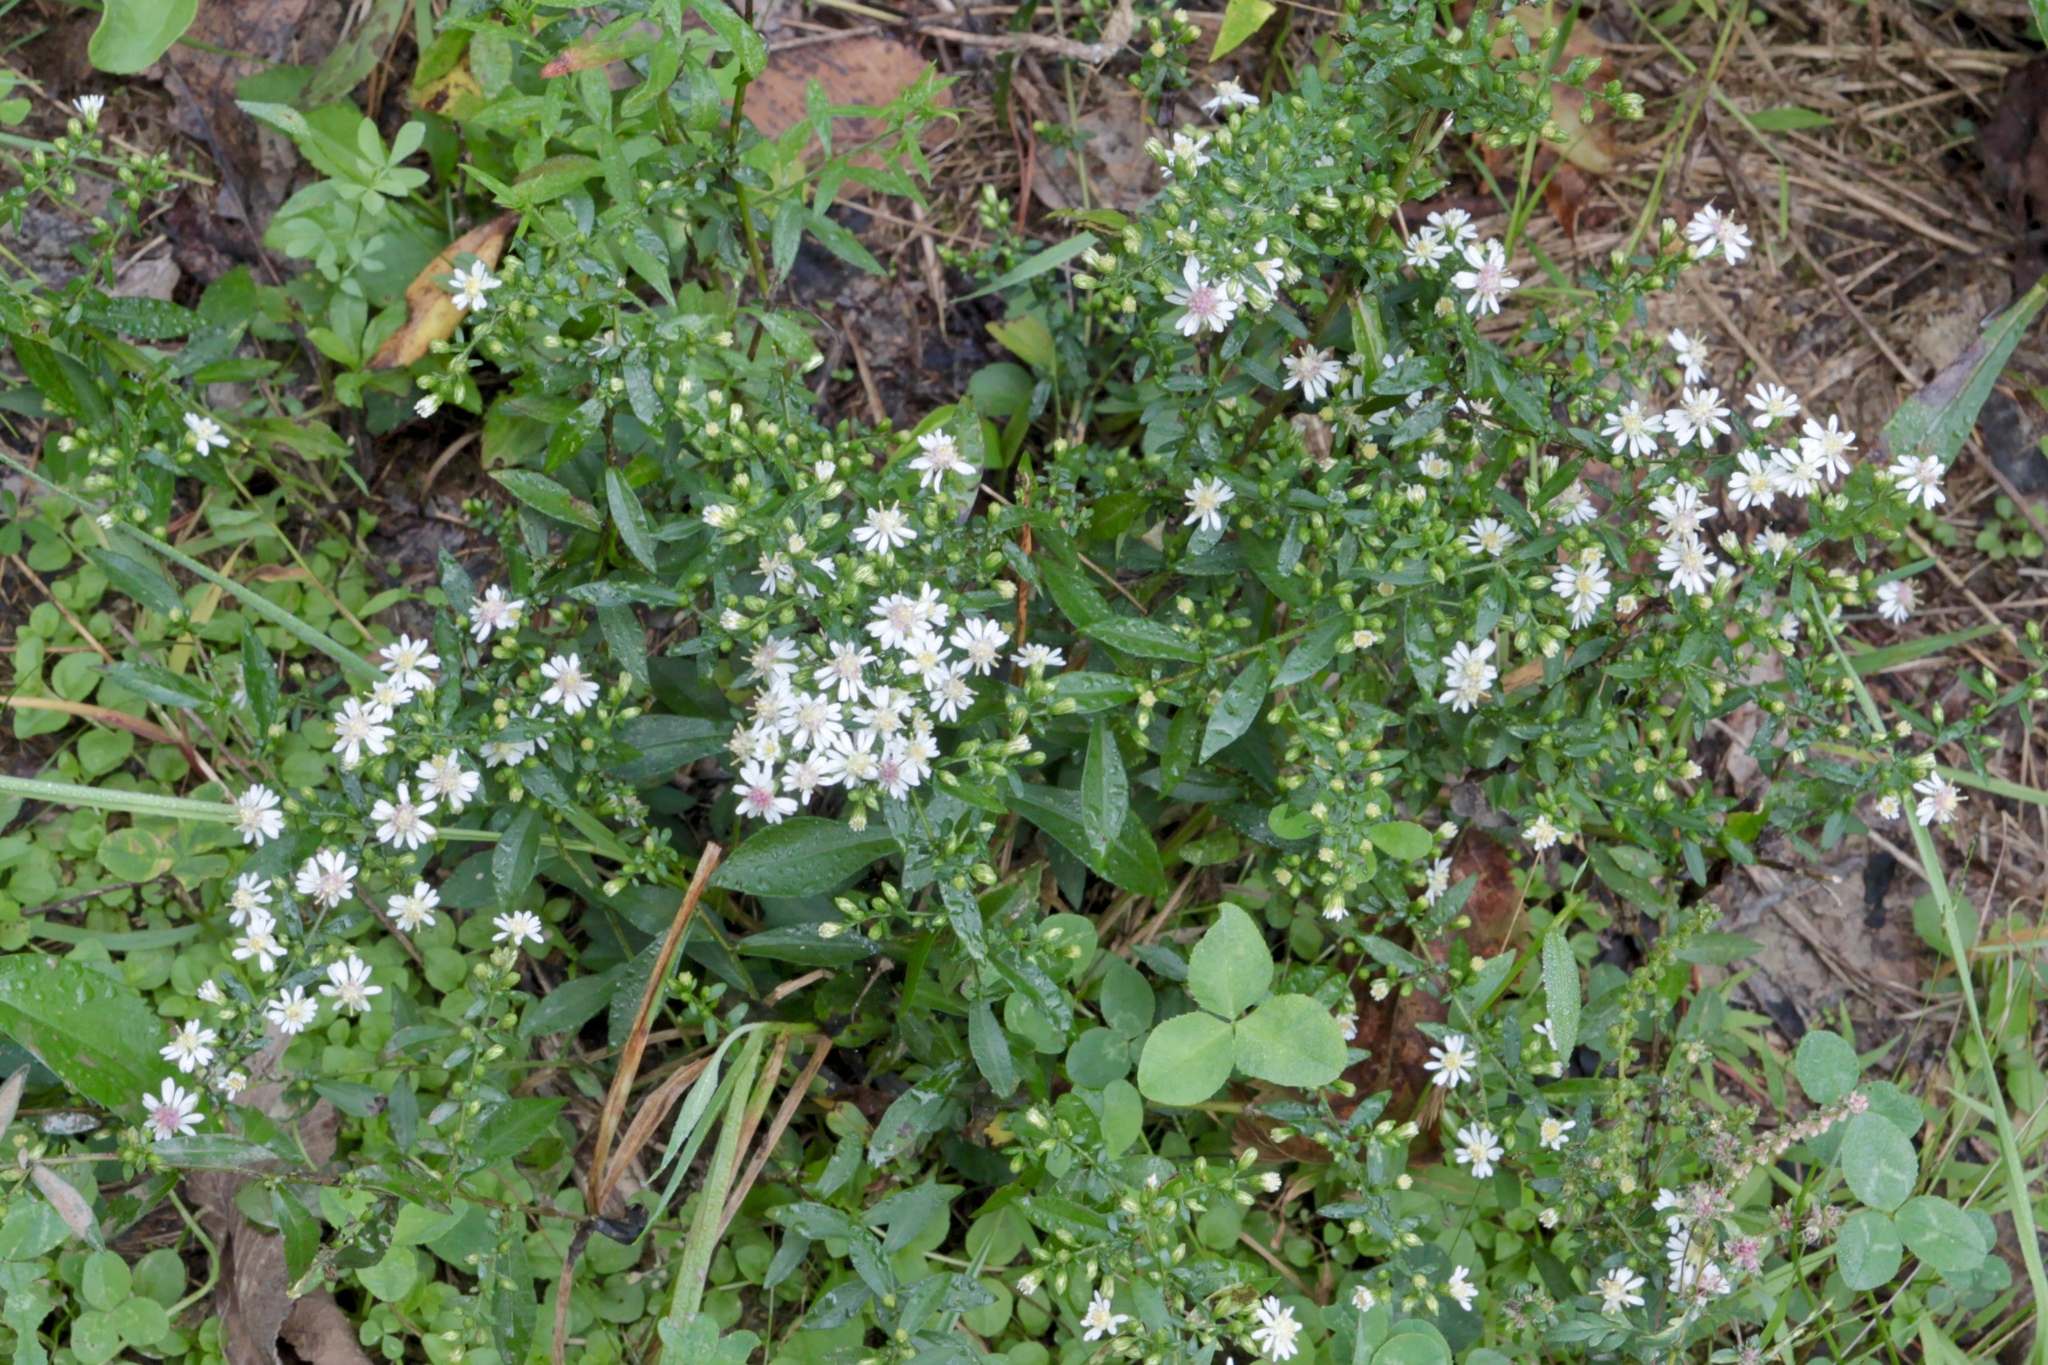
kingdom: Plantae
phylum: Tracheophyta
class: Magnoliopsida
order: Asterales
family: Asteraceae
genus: Symphyotrichum
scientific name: Symphyotrichum lateriflorum
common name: Calico aster
